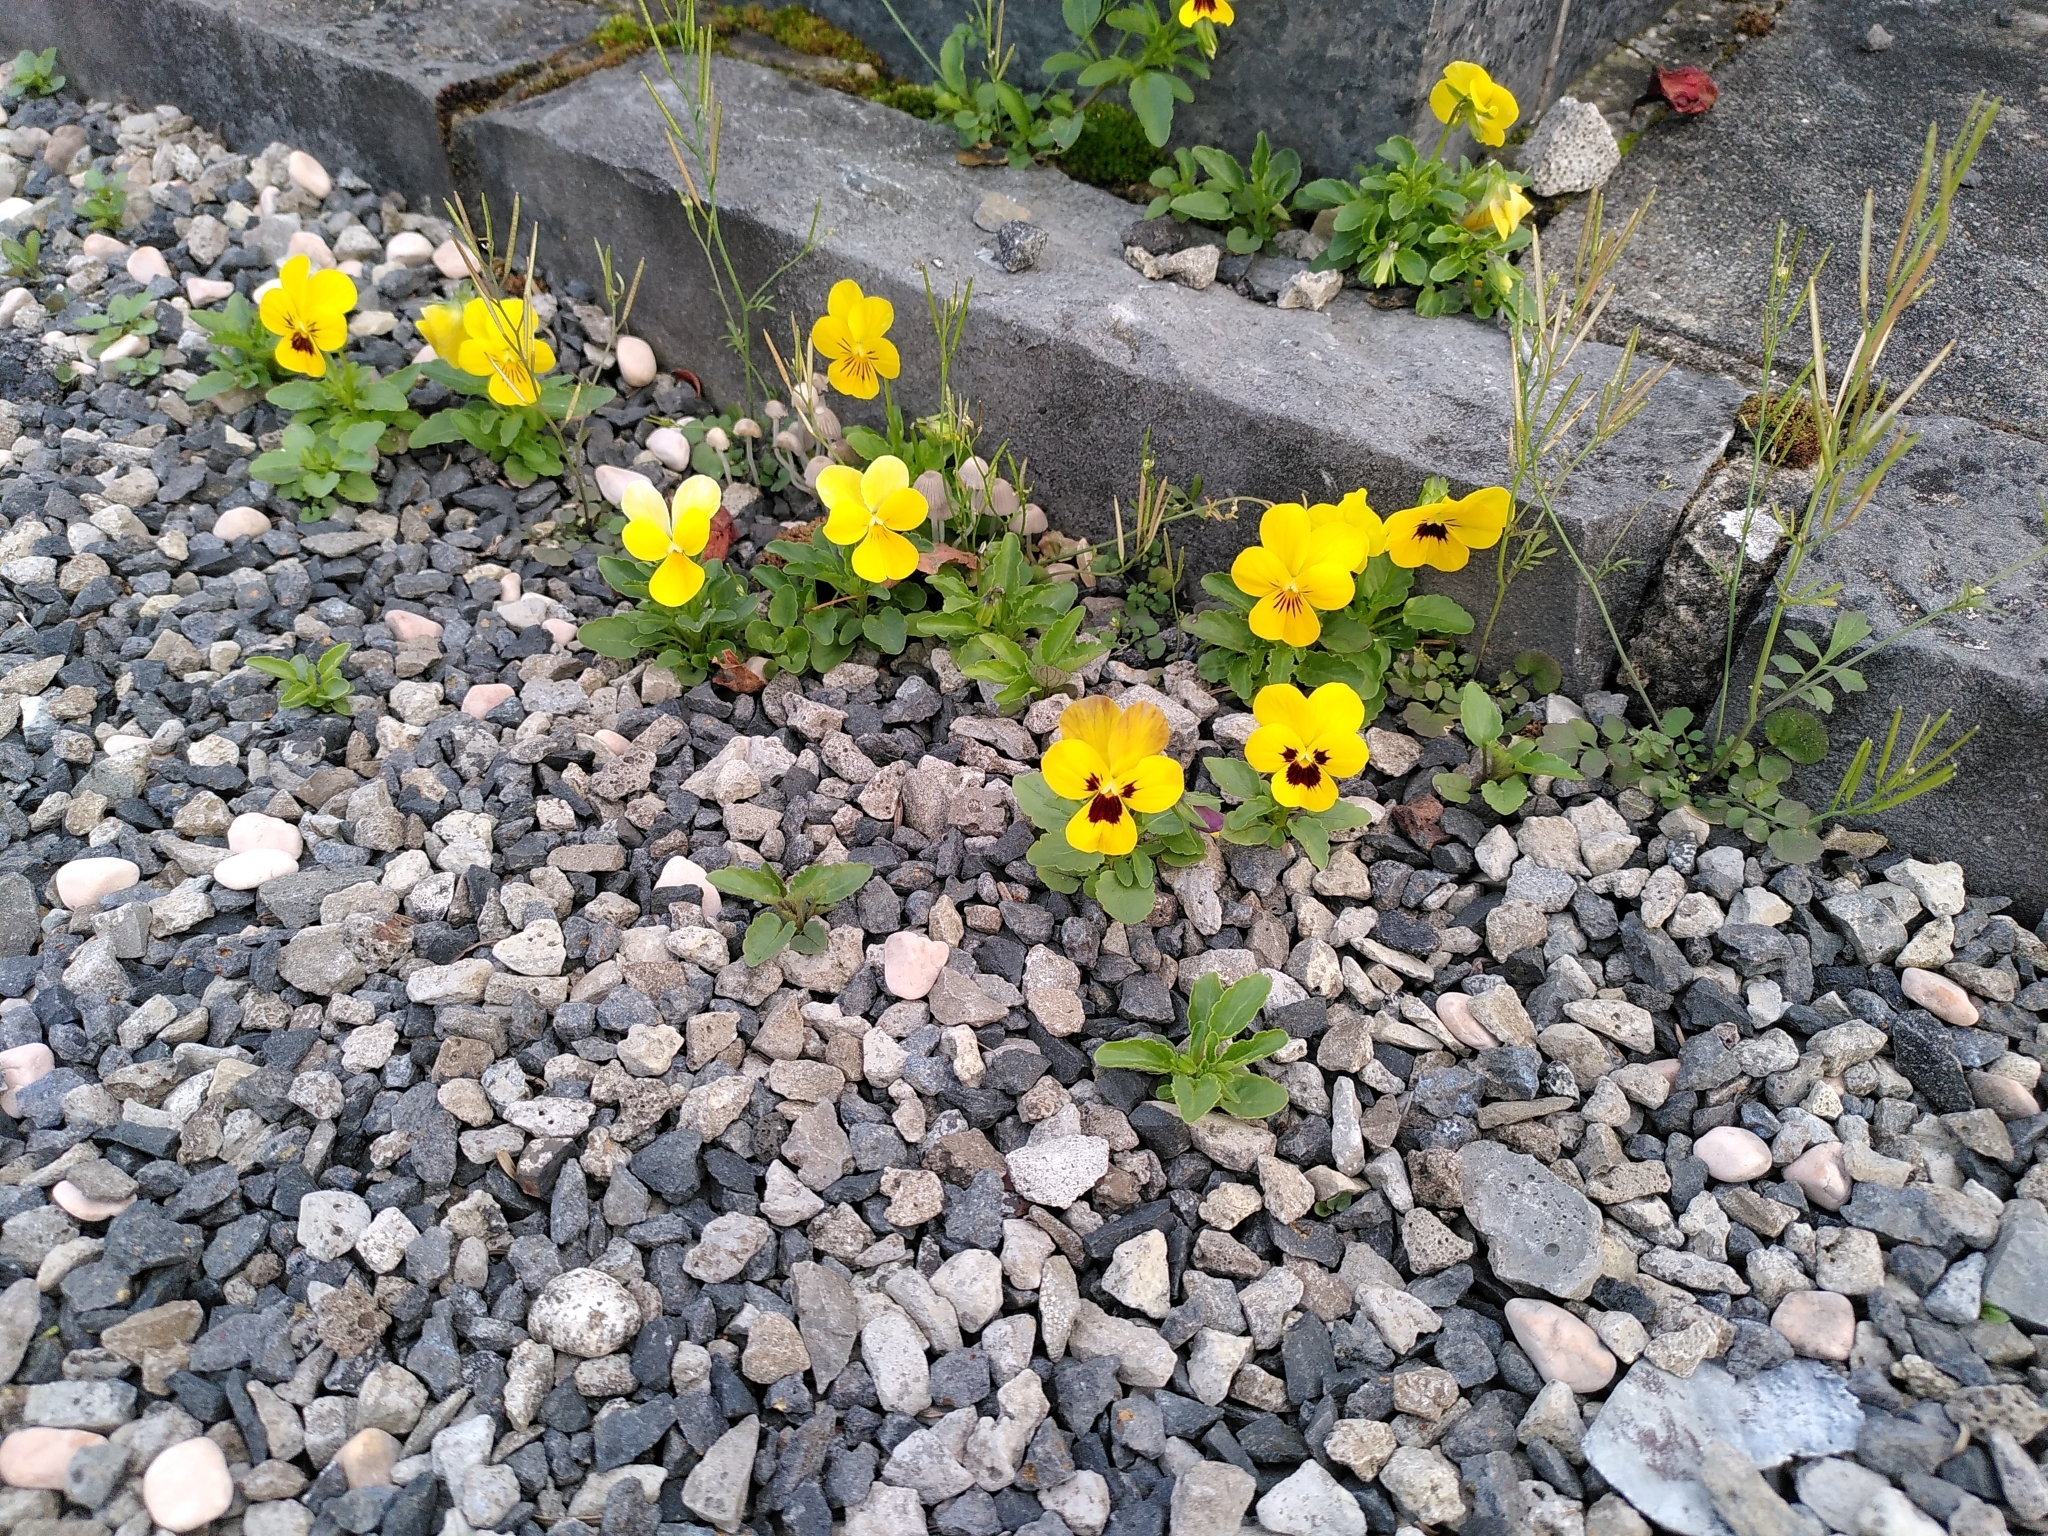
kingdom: Plantae
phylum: Tracheophyta
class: Magnoliopsida
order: Malpighiales
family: Violaceae
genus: Viola
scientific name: Viola wittrockiana
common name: Garden pansy
